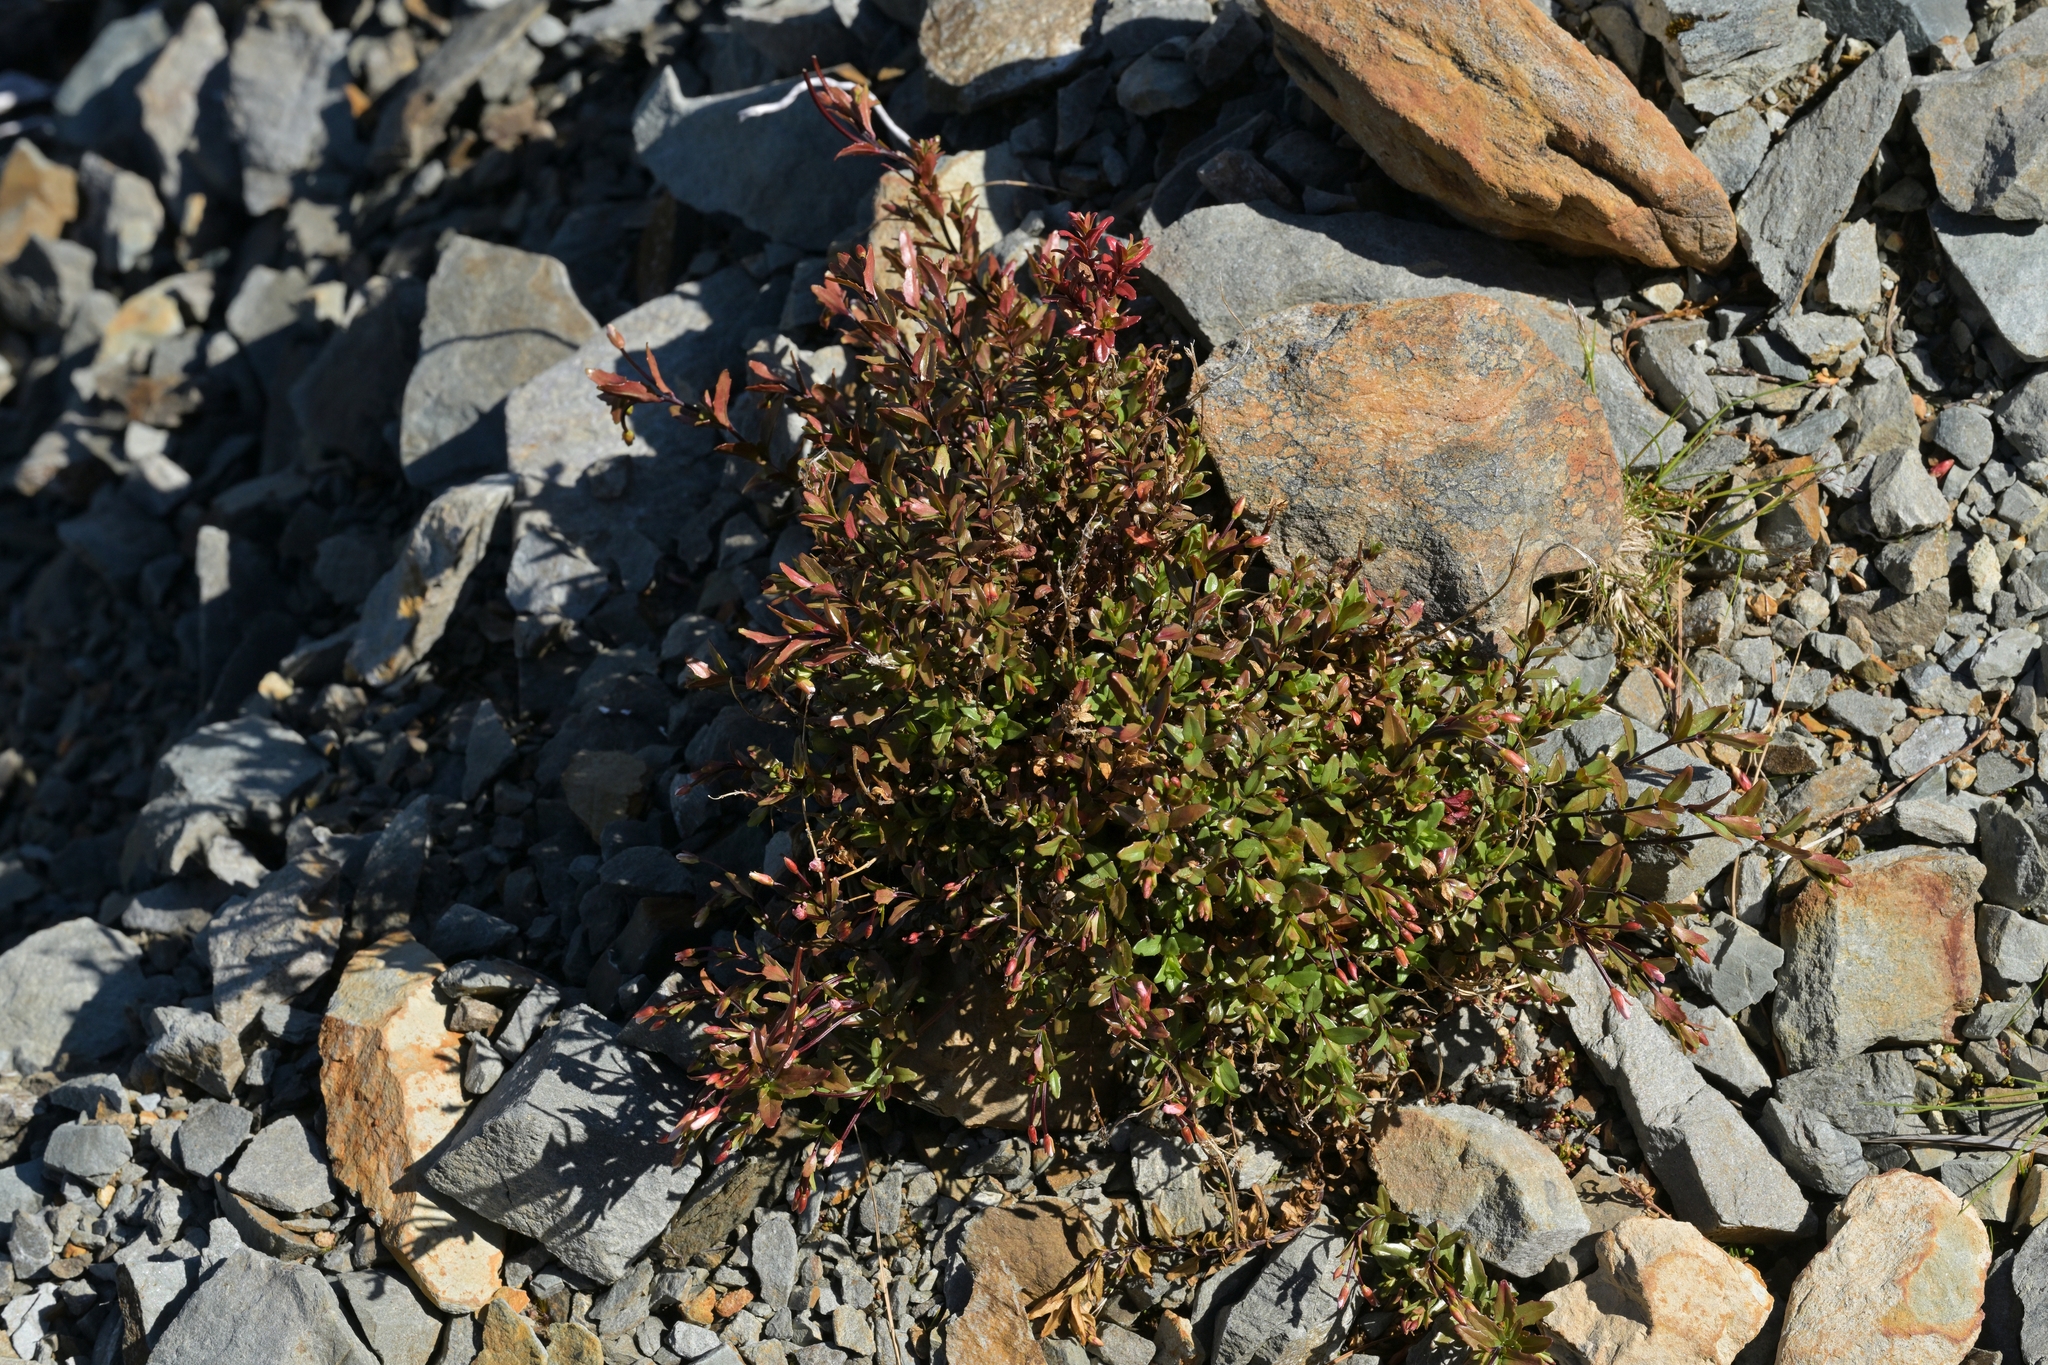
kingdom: Plantae
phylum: Tracheophyta
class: Magnoliopsida
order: Myrtales
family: Onagraceae
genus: Epilobium
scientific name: Epilobium glabellum
